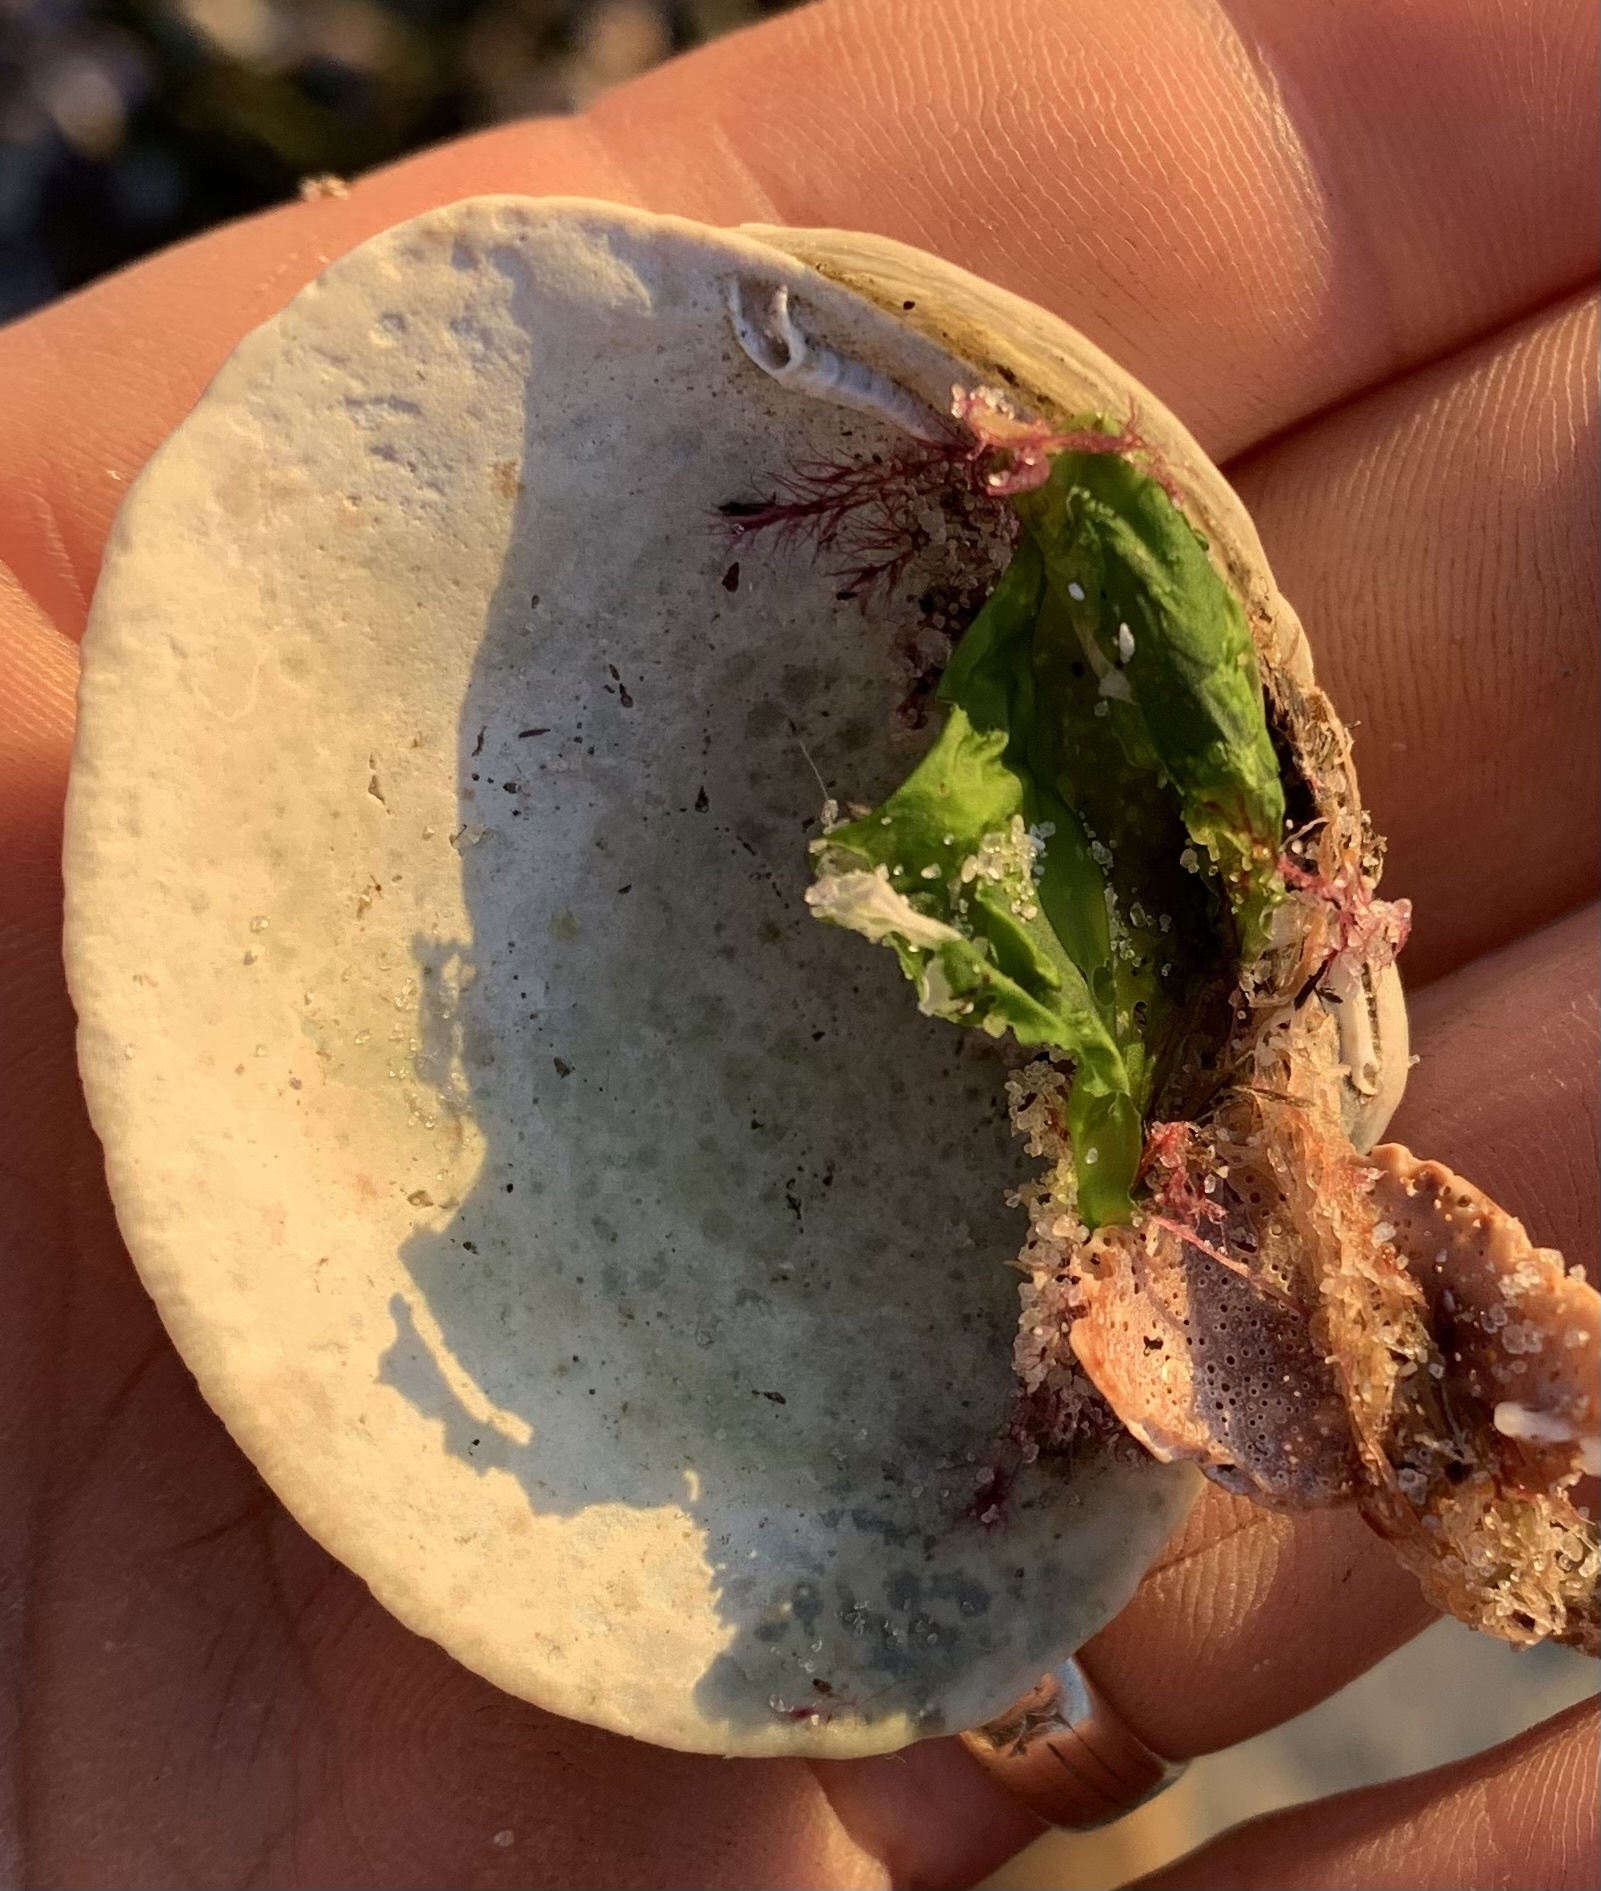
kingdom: Animalia
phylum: Mollusca
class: Bivalvia
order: Venerida
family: Veneridae
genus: Mercenaria
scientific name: Mercenaria mercenaria
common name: American hard-shelled clam
